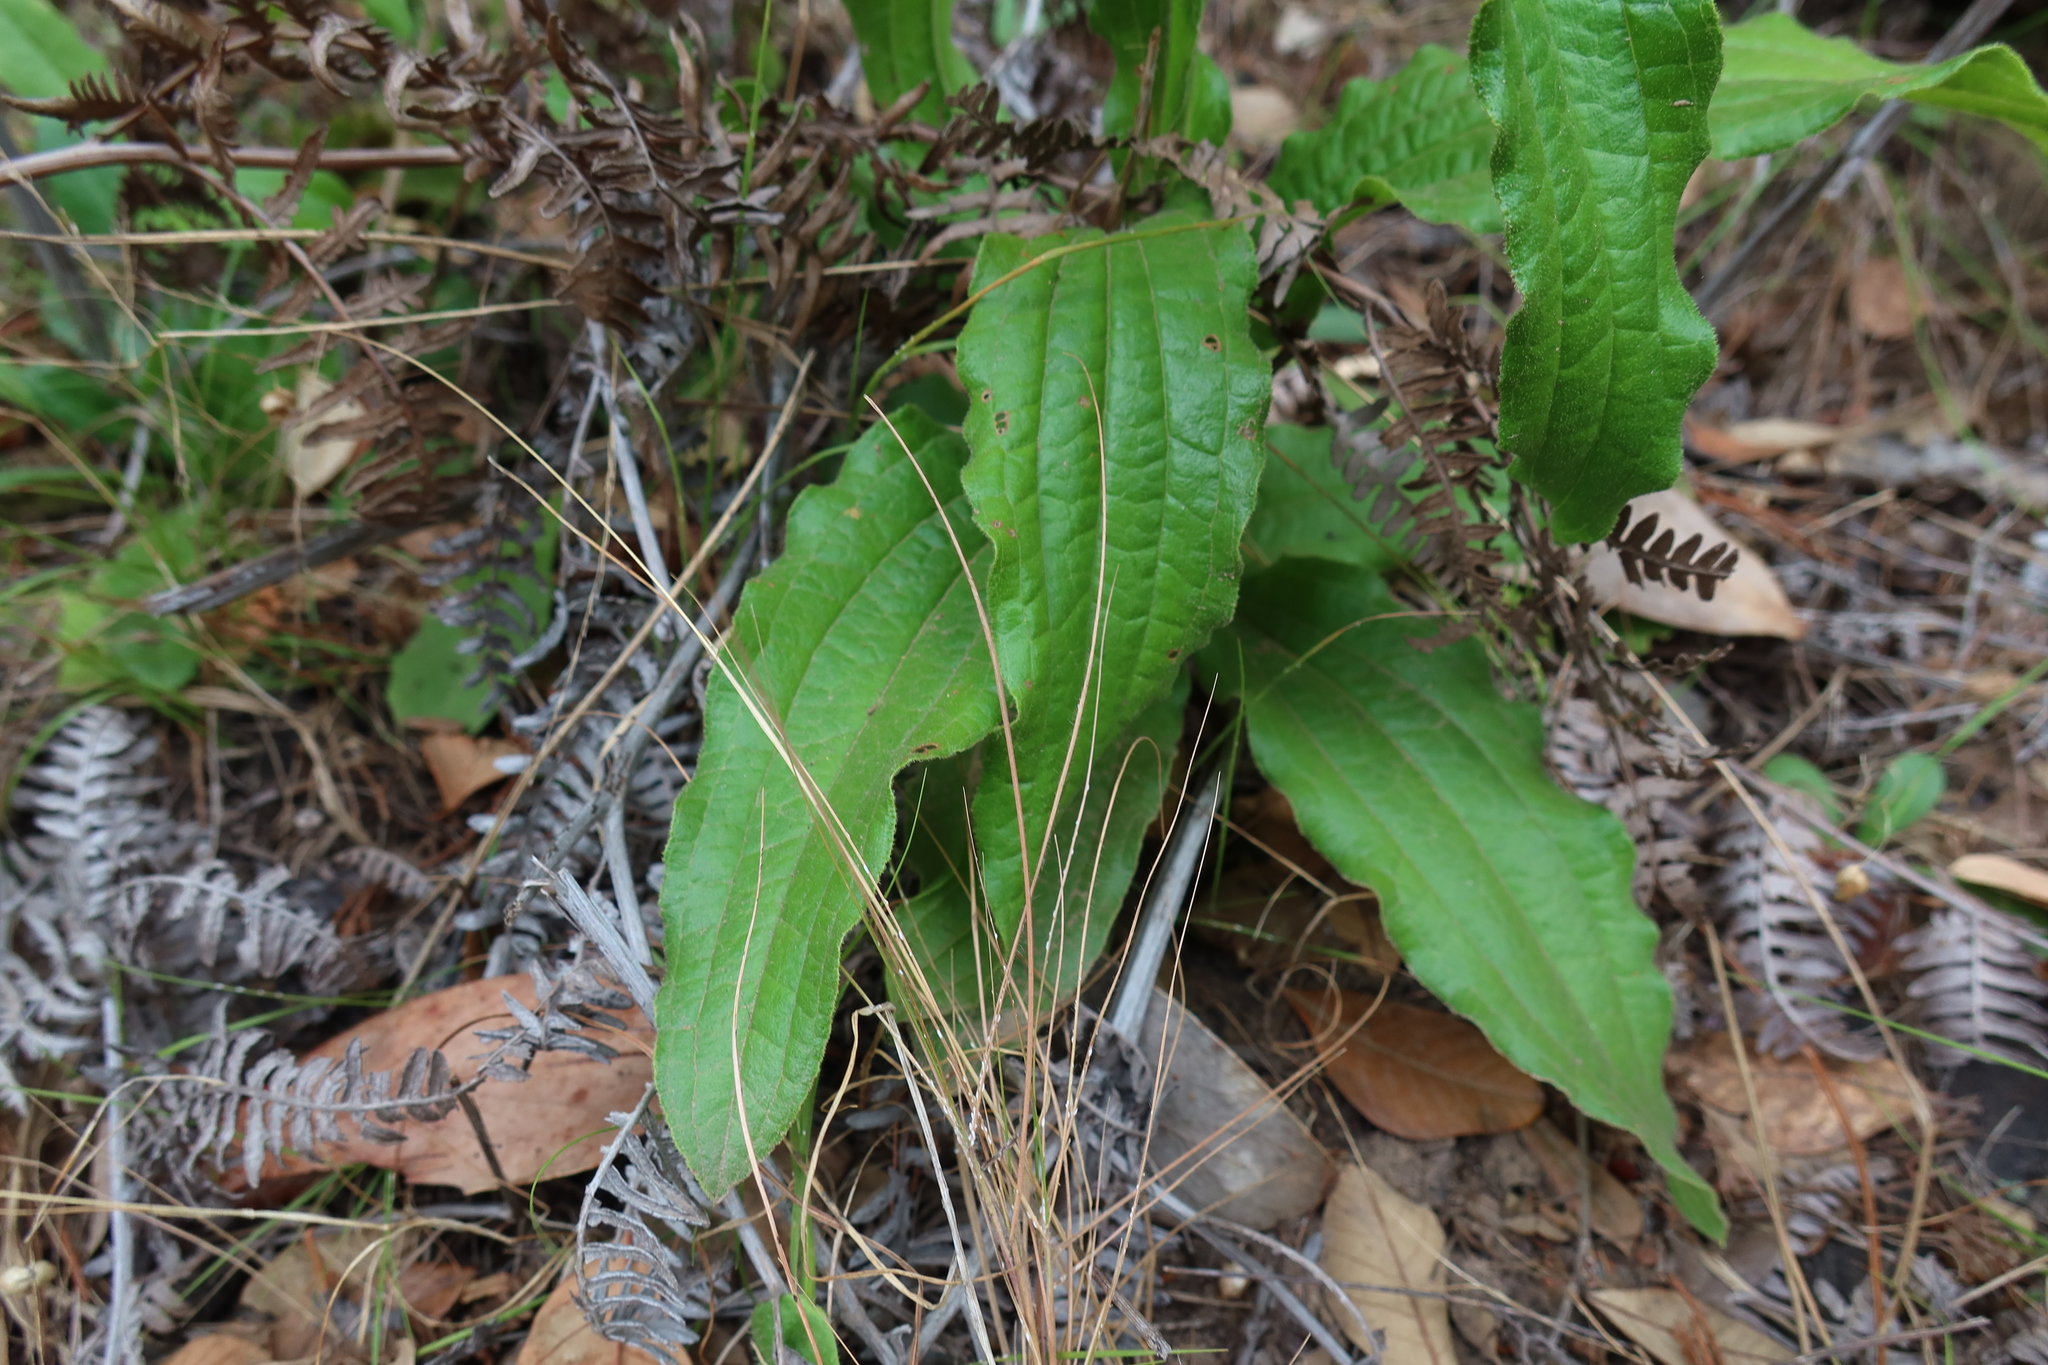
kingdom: Plantae
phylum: Tracheophyta
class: Magnoliopsida
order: Asterales
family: Asteraceae
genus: Helichrysum
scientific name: Helichrysum nudifolium
